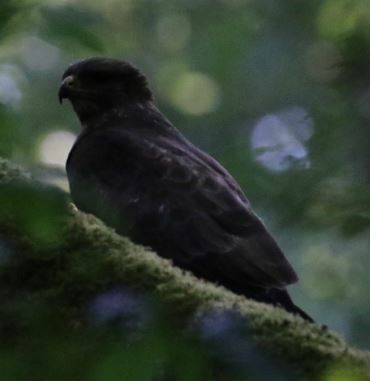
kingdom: Animalia
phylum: Chordata
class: Aves
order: Accipitriformes
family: Accipitridae
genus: Buteo
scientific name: Buteo buteo
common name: Common buzzard
